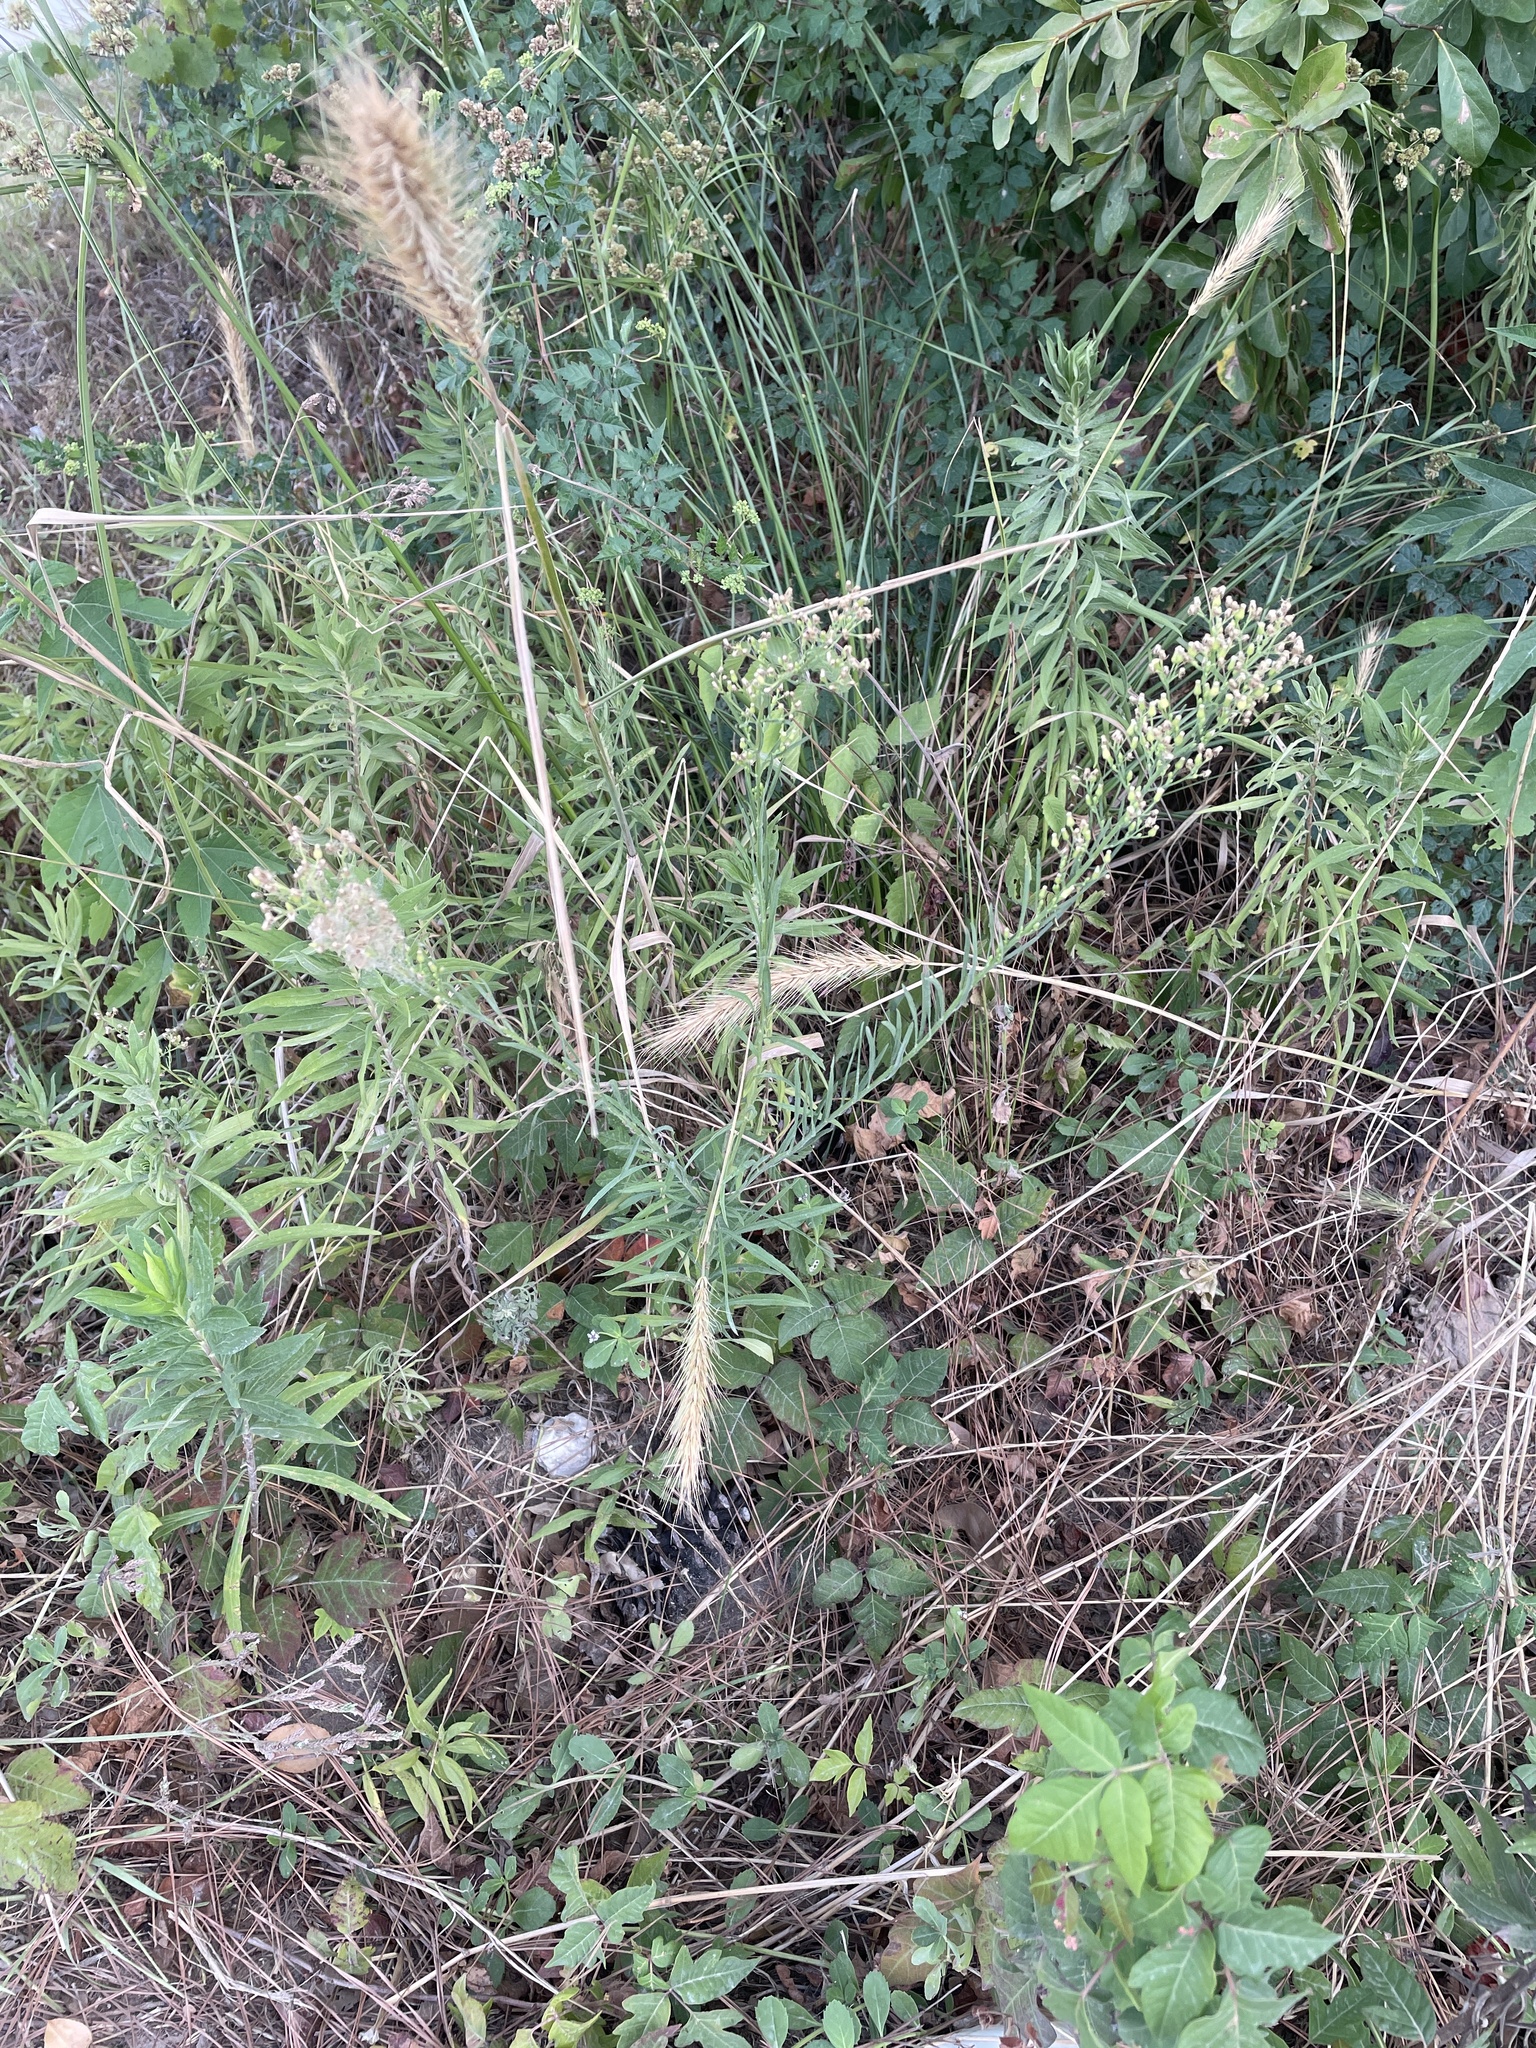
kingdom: Plantae
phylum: Tracheophyta
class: Magnoliopsida
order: Asterales
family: Asteraceae
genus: Erigeron
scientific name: Erigeron canadensis
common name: Canadian fleabane
